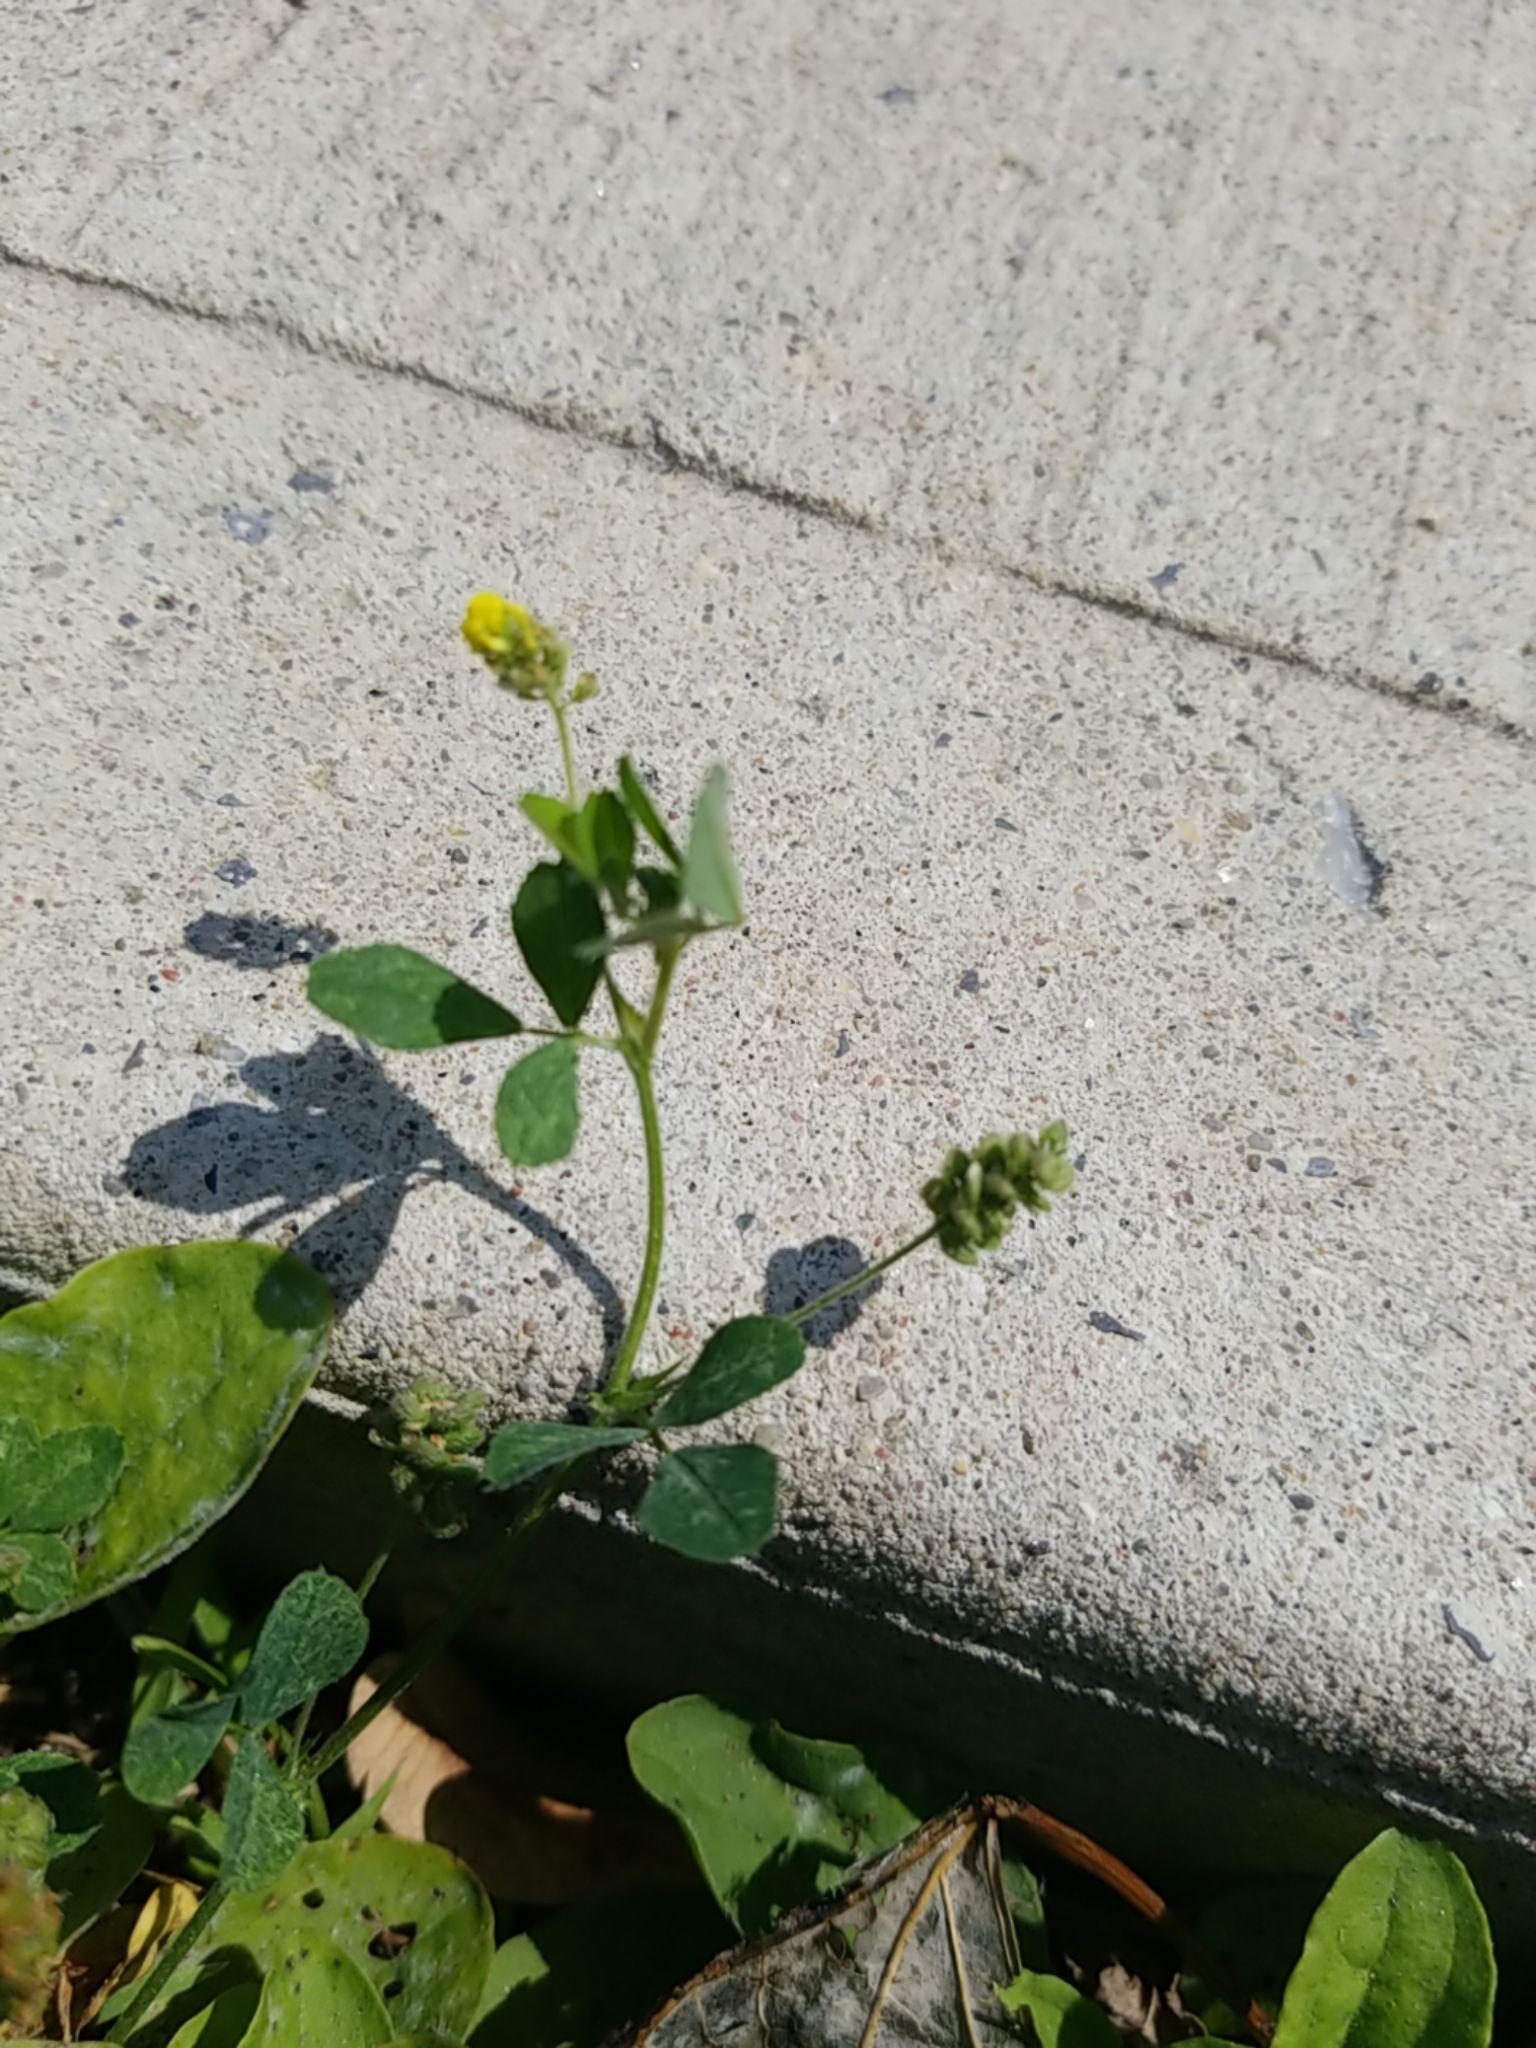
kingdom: Plantae
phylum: Tracheophyta
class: Magnoliopsida
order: Fabales
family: Fabaceae
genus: Medicago
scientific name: Medicago lupulina
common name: Black medick
